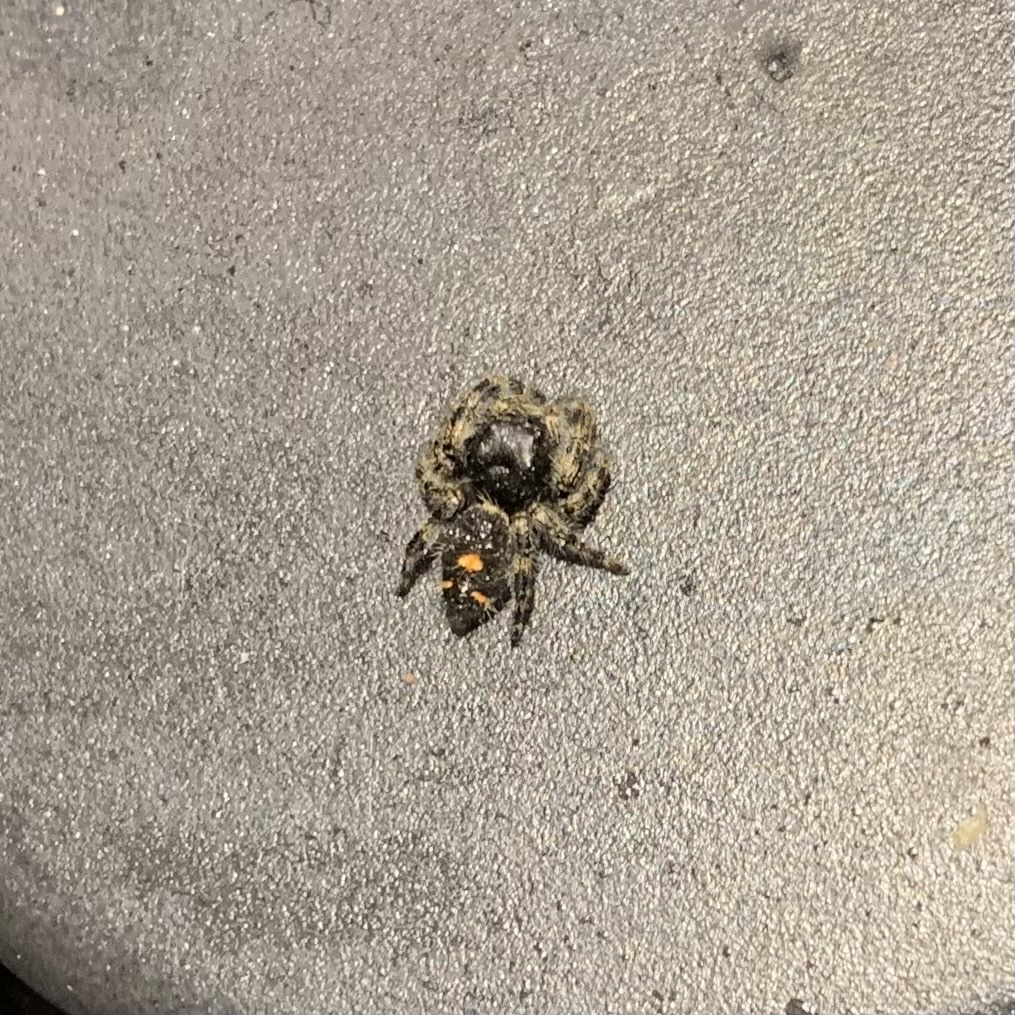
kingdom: Animalia
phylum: Arthropoda
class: Arachnida
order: Araneae
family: Salticidae
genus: Phidippus
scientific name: Phidippus audax
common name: Bold jumper
